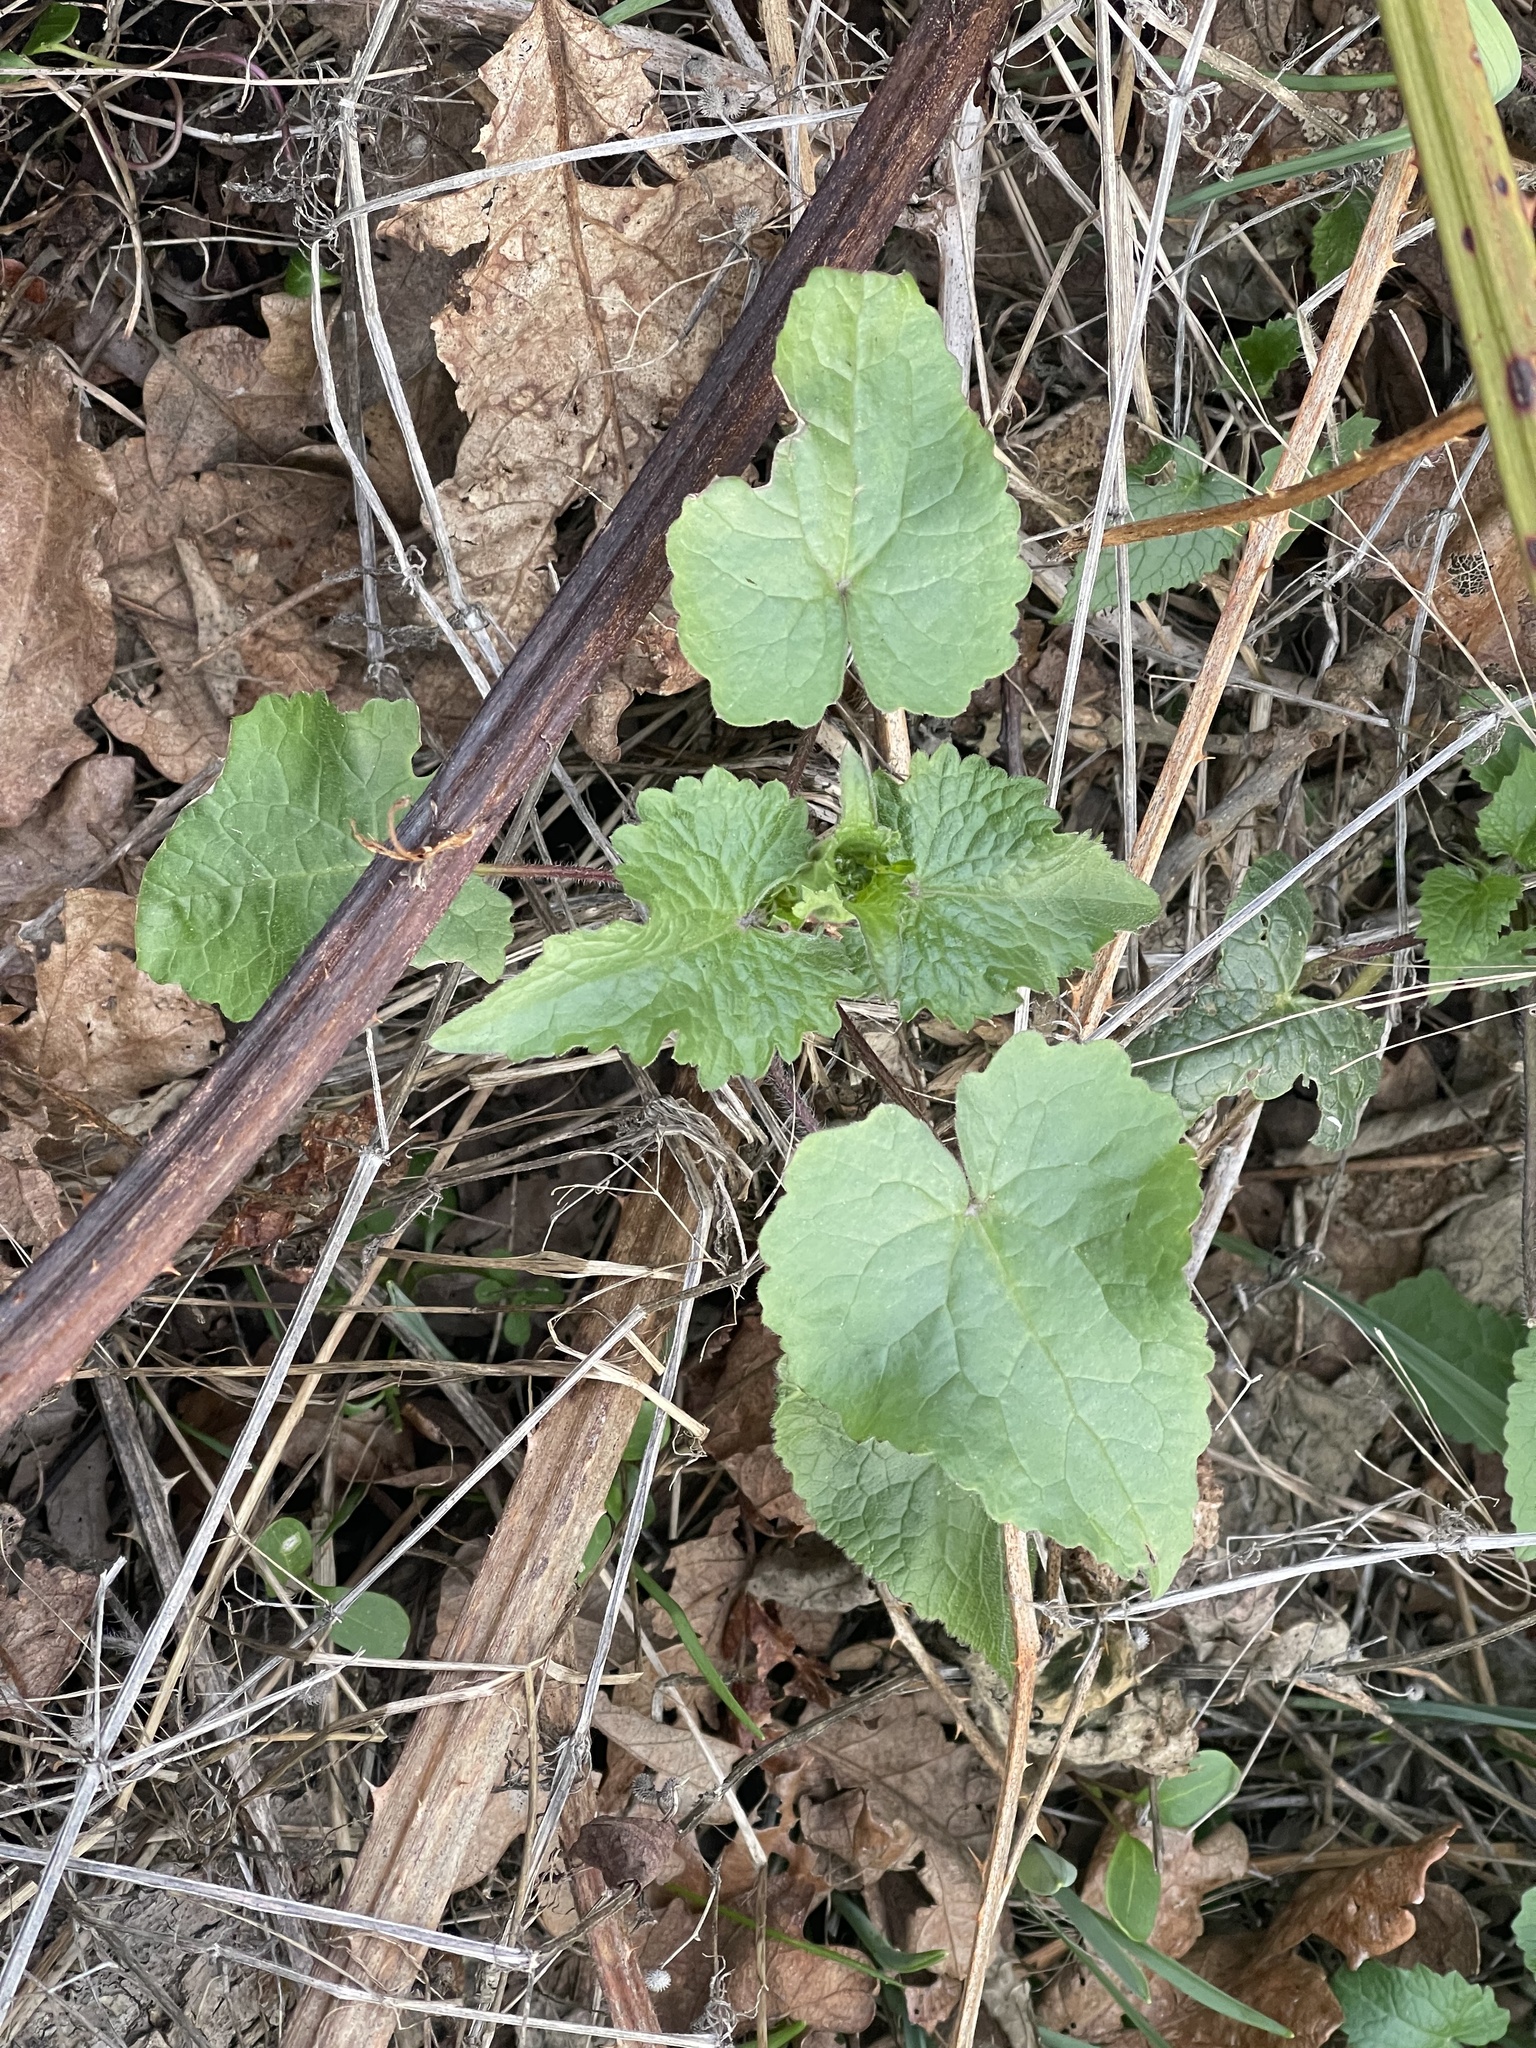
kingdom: Plantae
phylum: Tracheophyta
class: Magnoliopsida
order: Brassicales
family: Brassicaceae
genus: Lunaria
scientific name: Lunaria annua
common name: Honesty
